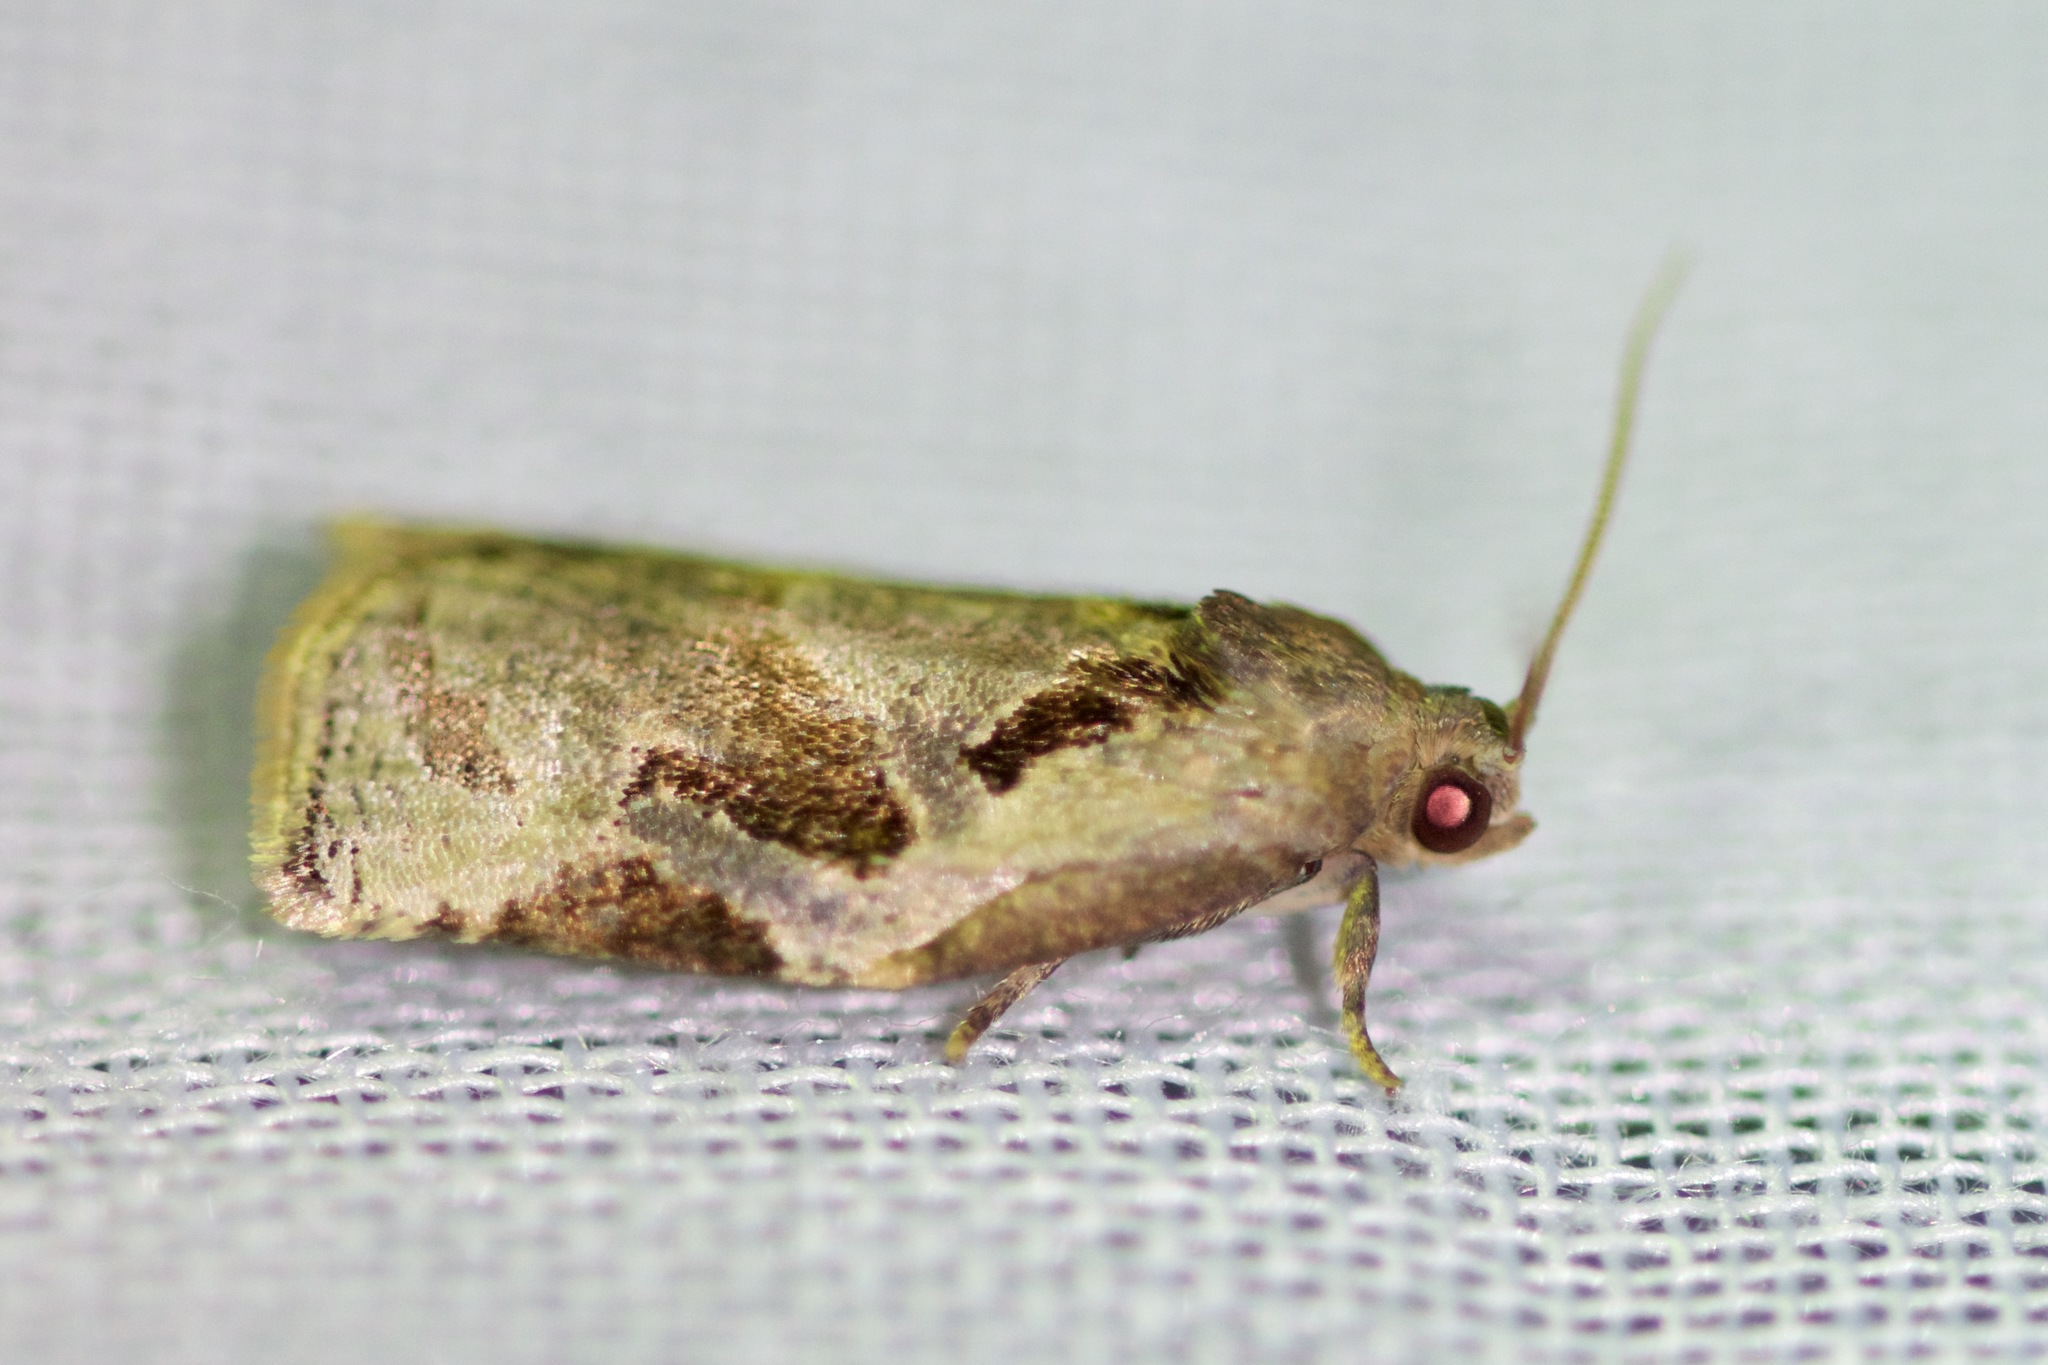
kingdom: Animalia
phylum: Arthropoda
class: Insecta
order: Lepidoptera
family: Tortricidae
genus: Archips
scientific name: Archips grisea
